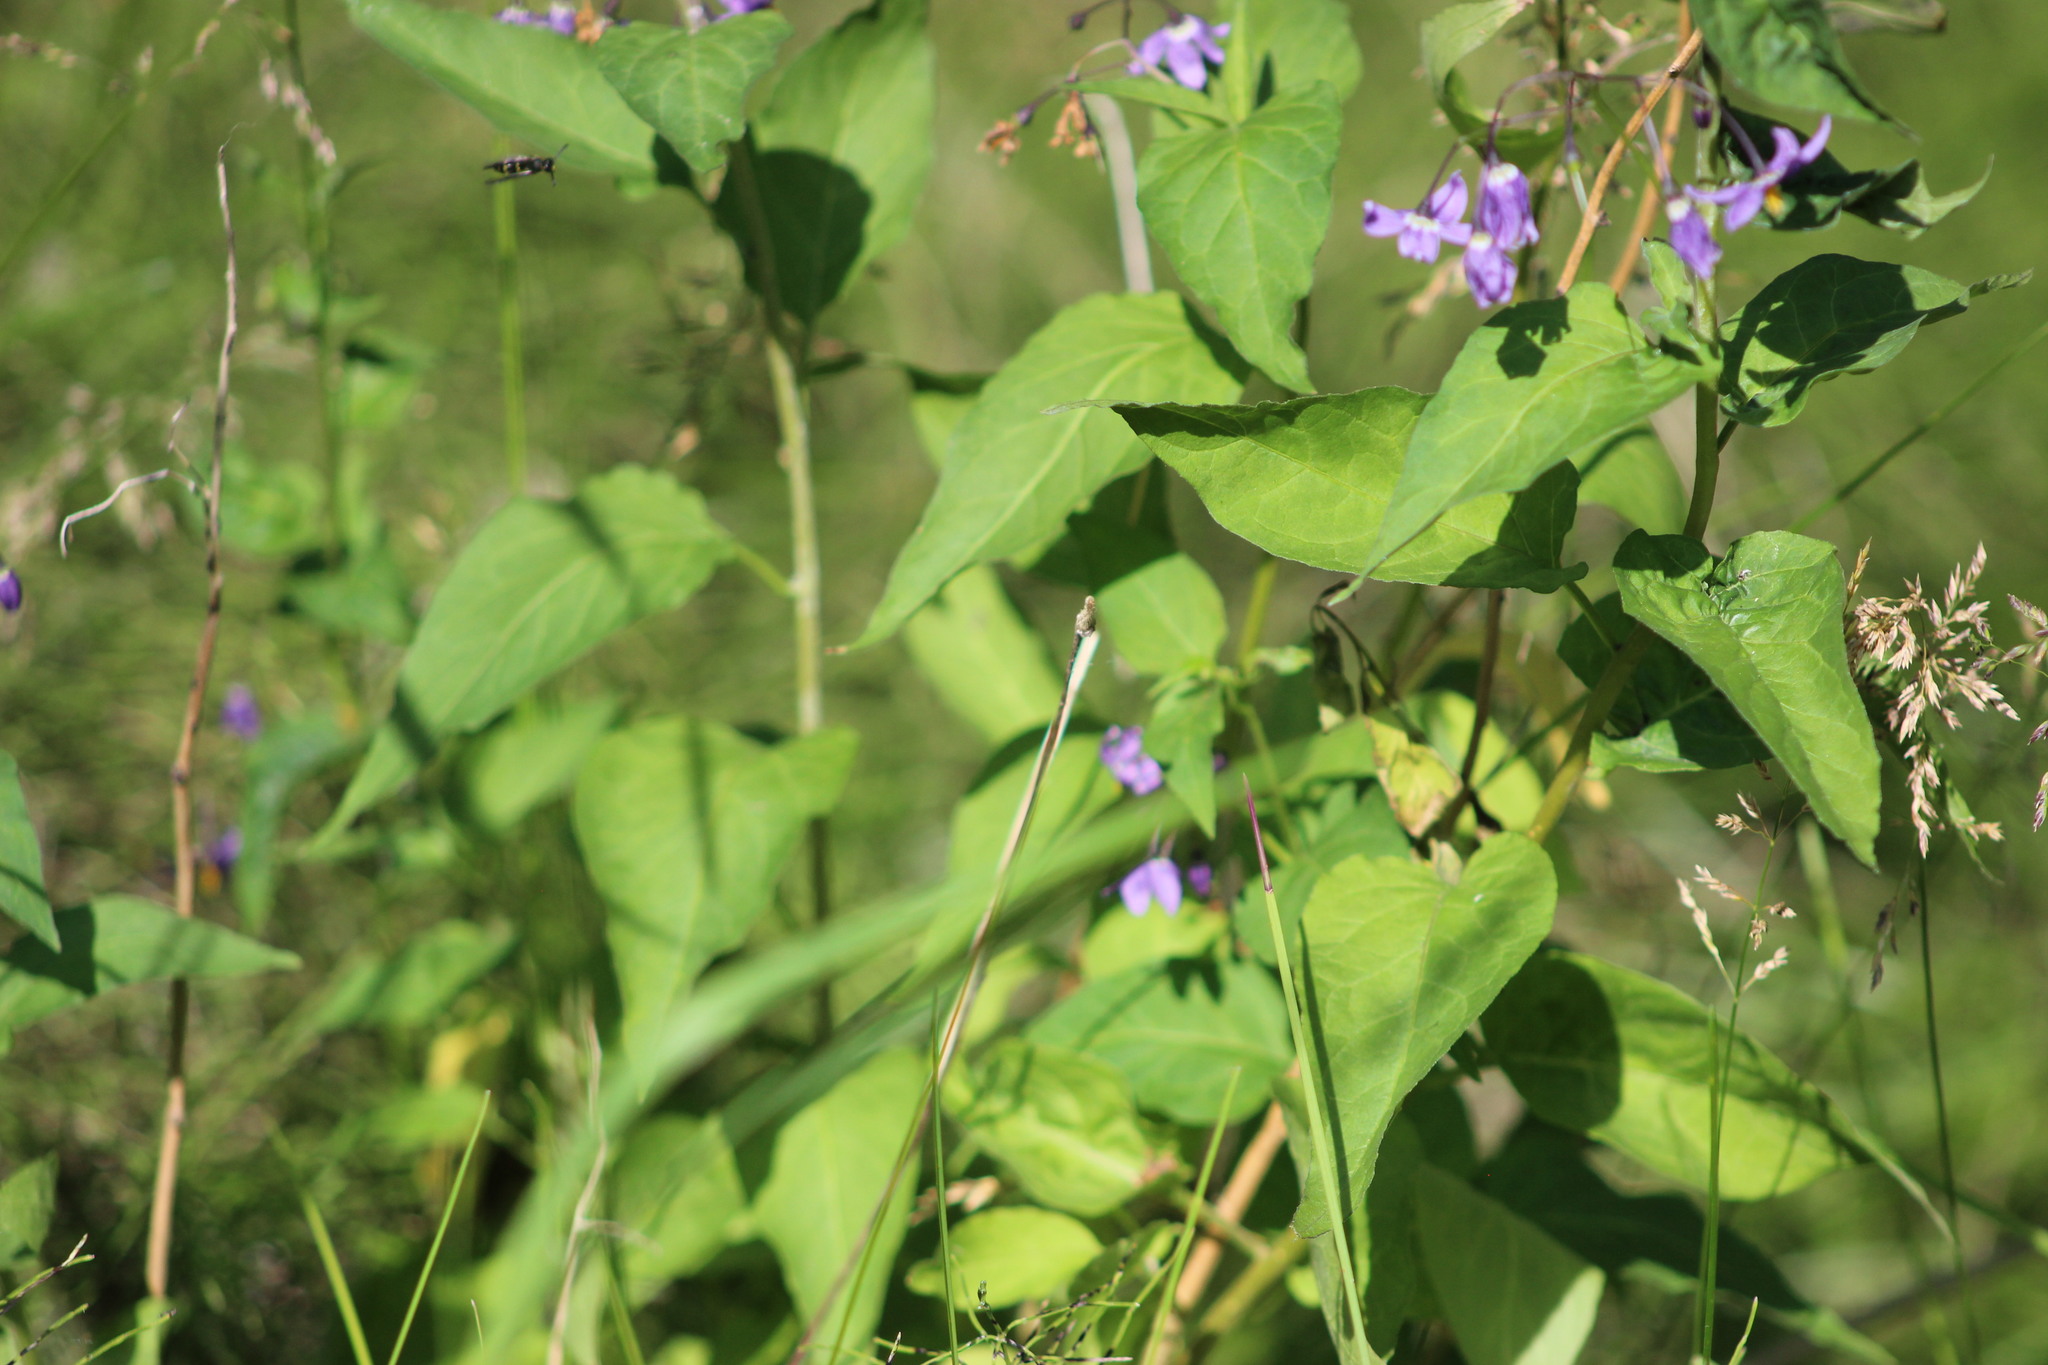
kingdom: Plantae
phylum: Tracheophyta
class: Magnoliopsida
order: Solanales
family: Solanaceae
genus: Solanum
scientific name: Solanum dulcamara
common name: Climbing nightshade
